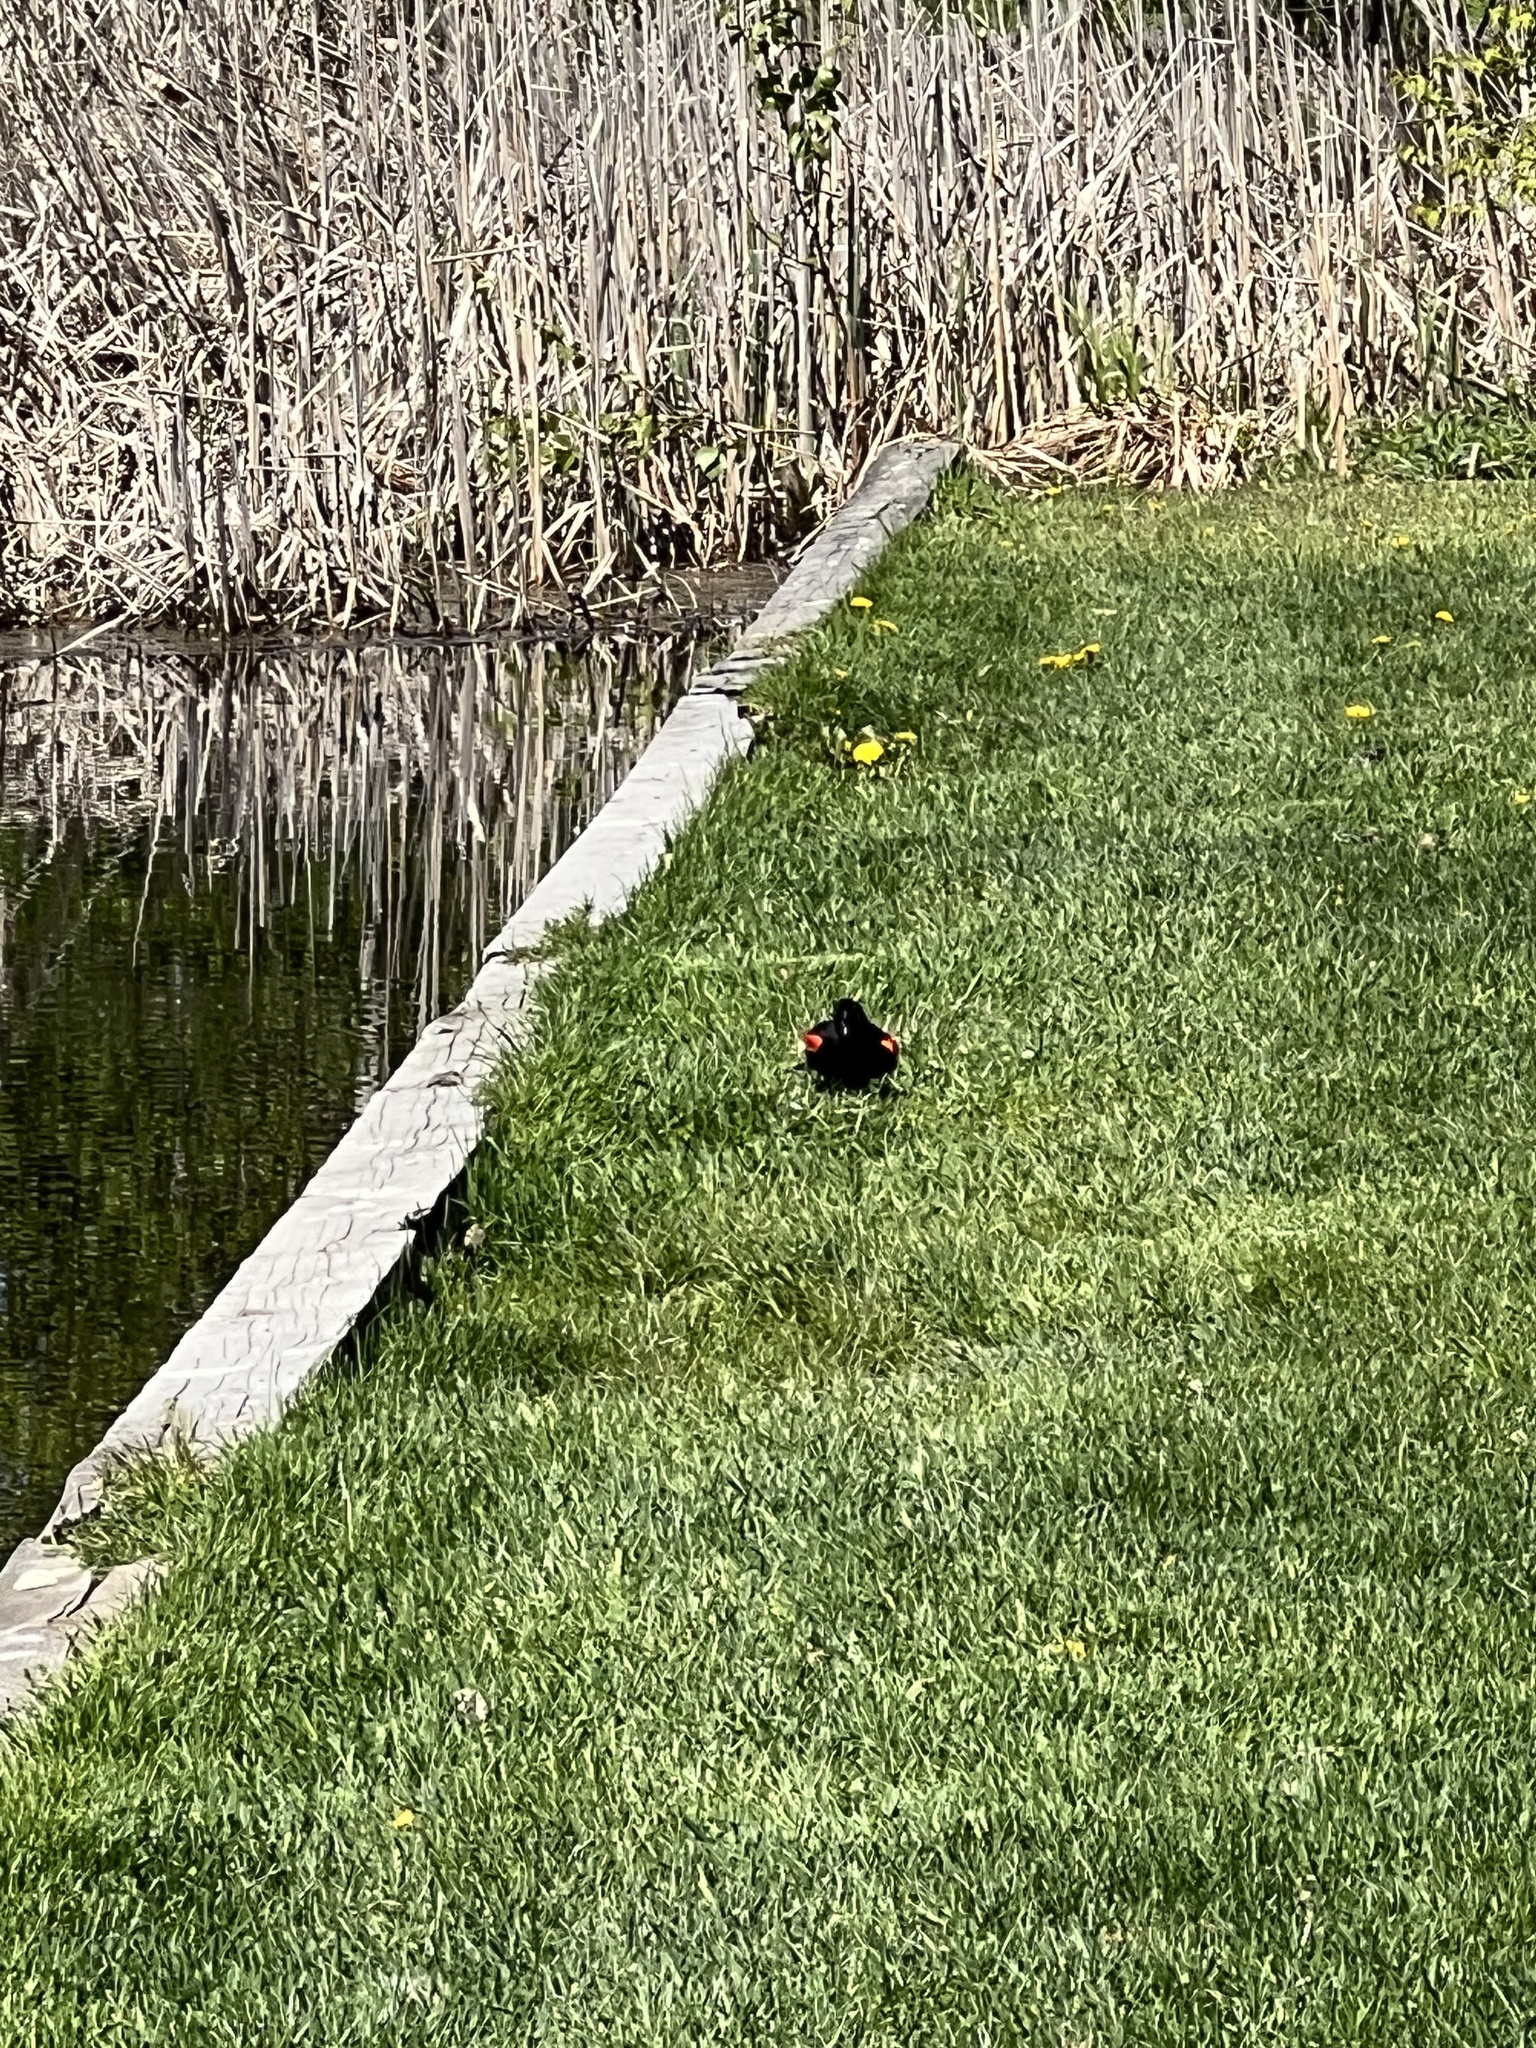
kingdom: Animalia
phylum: Chordata
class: Aves
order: Passeriformes
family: Icteridae
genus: Agelaius
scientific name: Agelaius phoeniceus
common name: Red-winged blackbird
